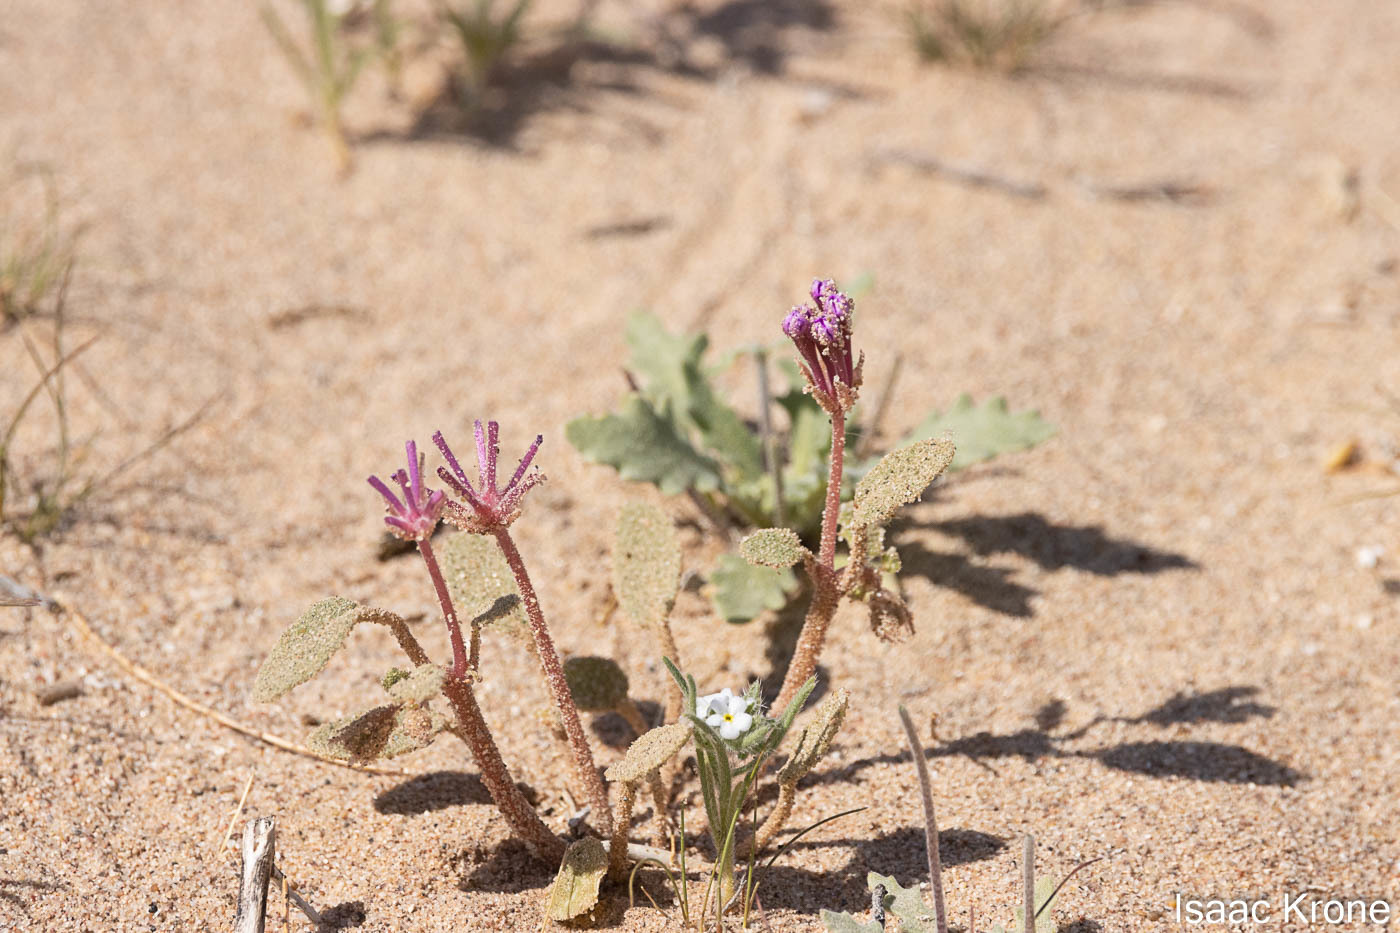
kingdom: Plantae
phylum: Tracheophyta
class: Magnoliopsida
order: Caryophyllales
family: Nyctaginaceae
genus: Abronia
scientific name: Abronia villosa
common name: Desert sand-verbena
